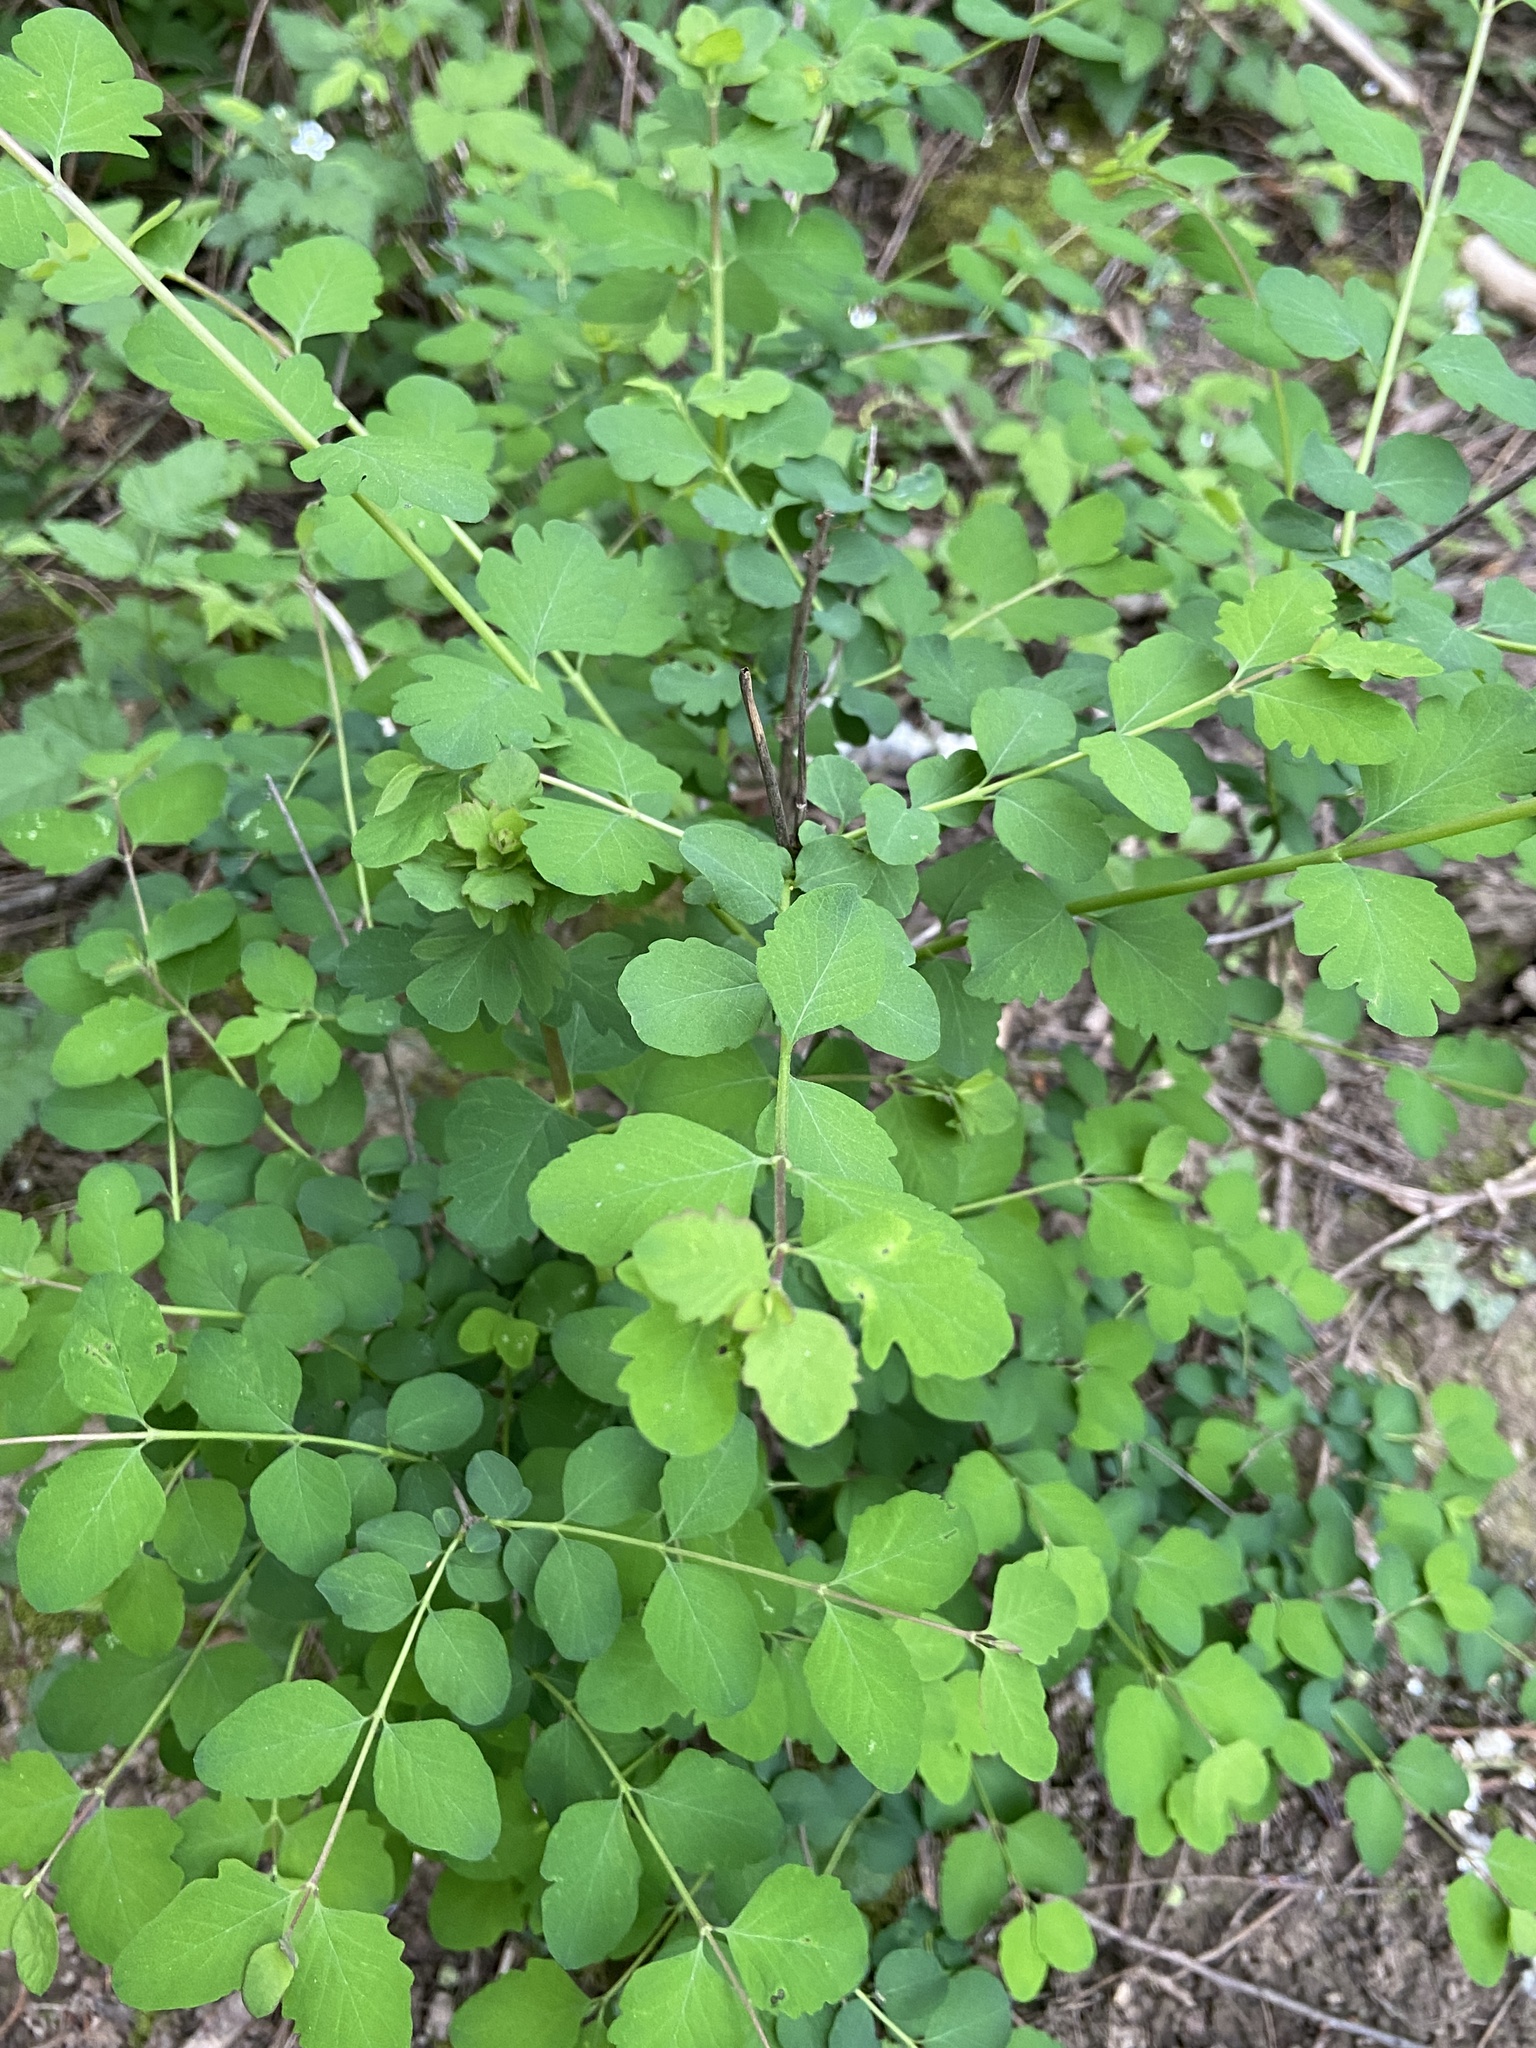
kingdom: Plantae
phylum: Tracheophyta
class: Magnoliopsida
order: Dipsacales
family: Caprifoliaceae
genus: Symphoricarpos
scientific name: Symphoricarpos albus
